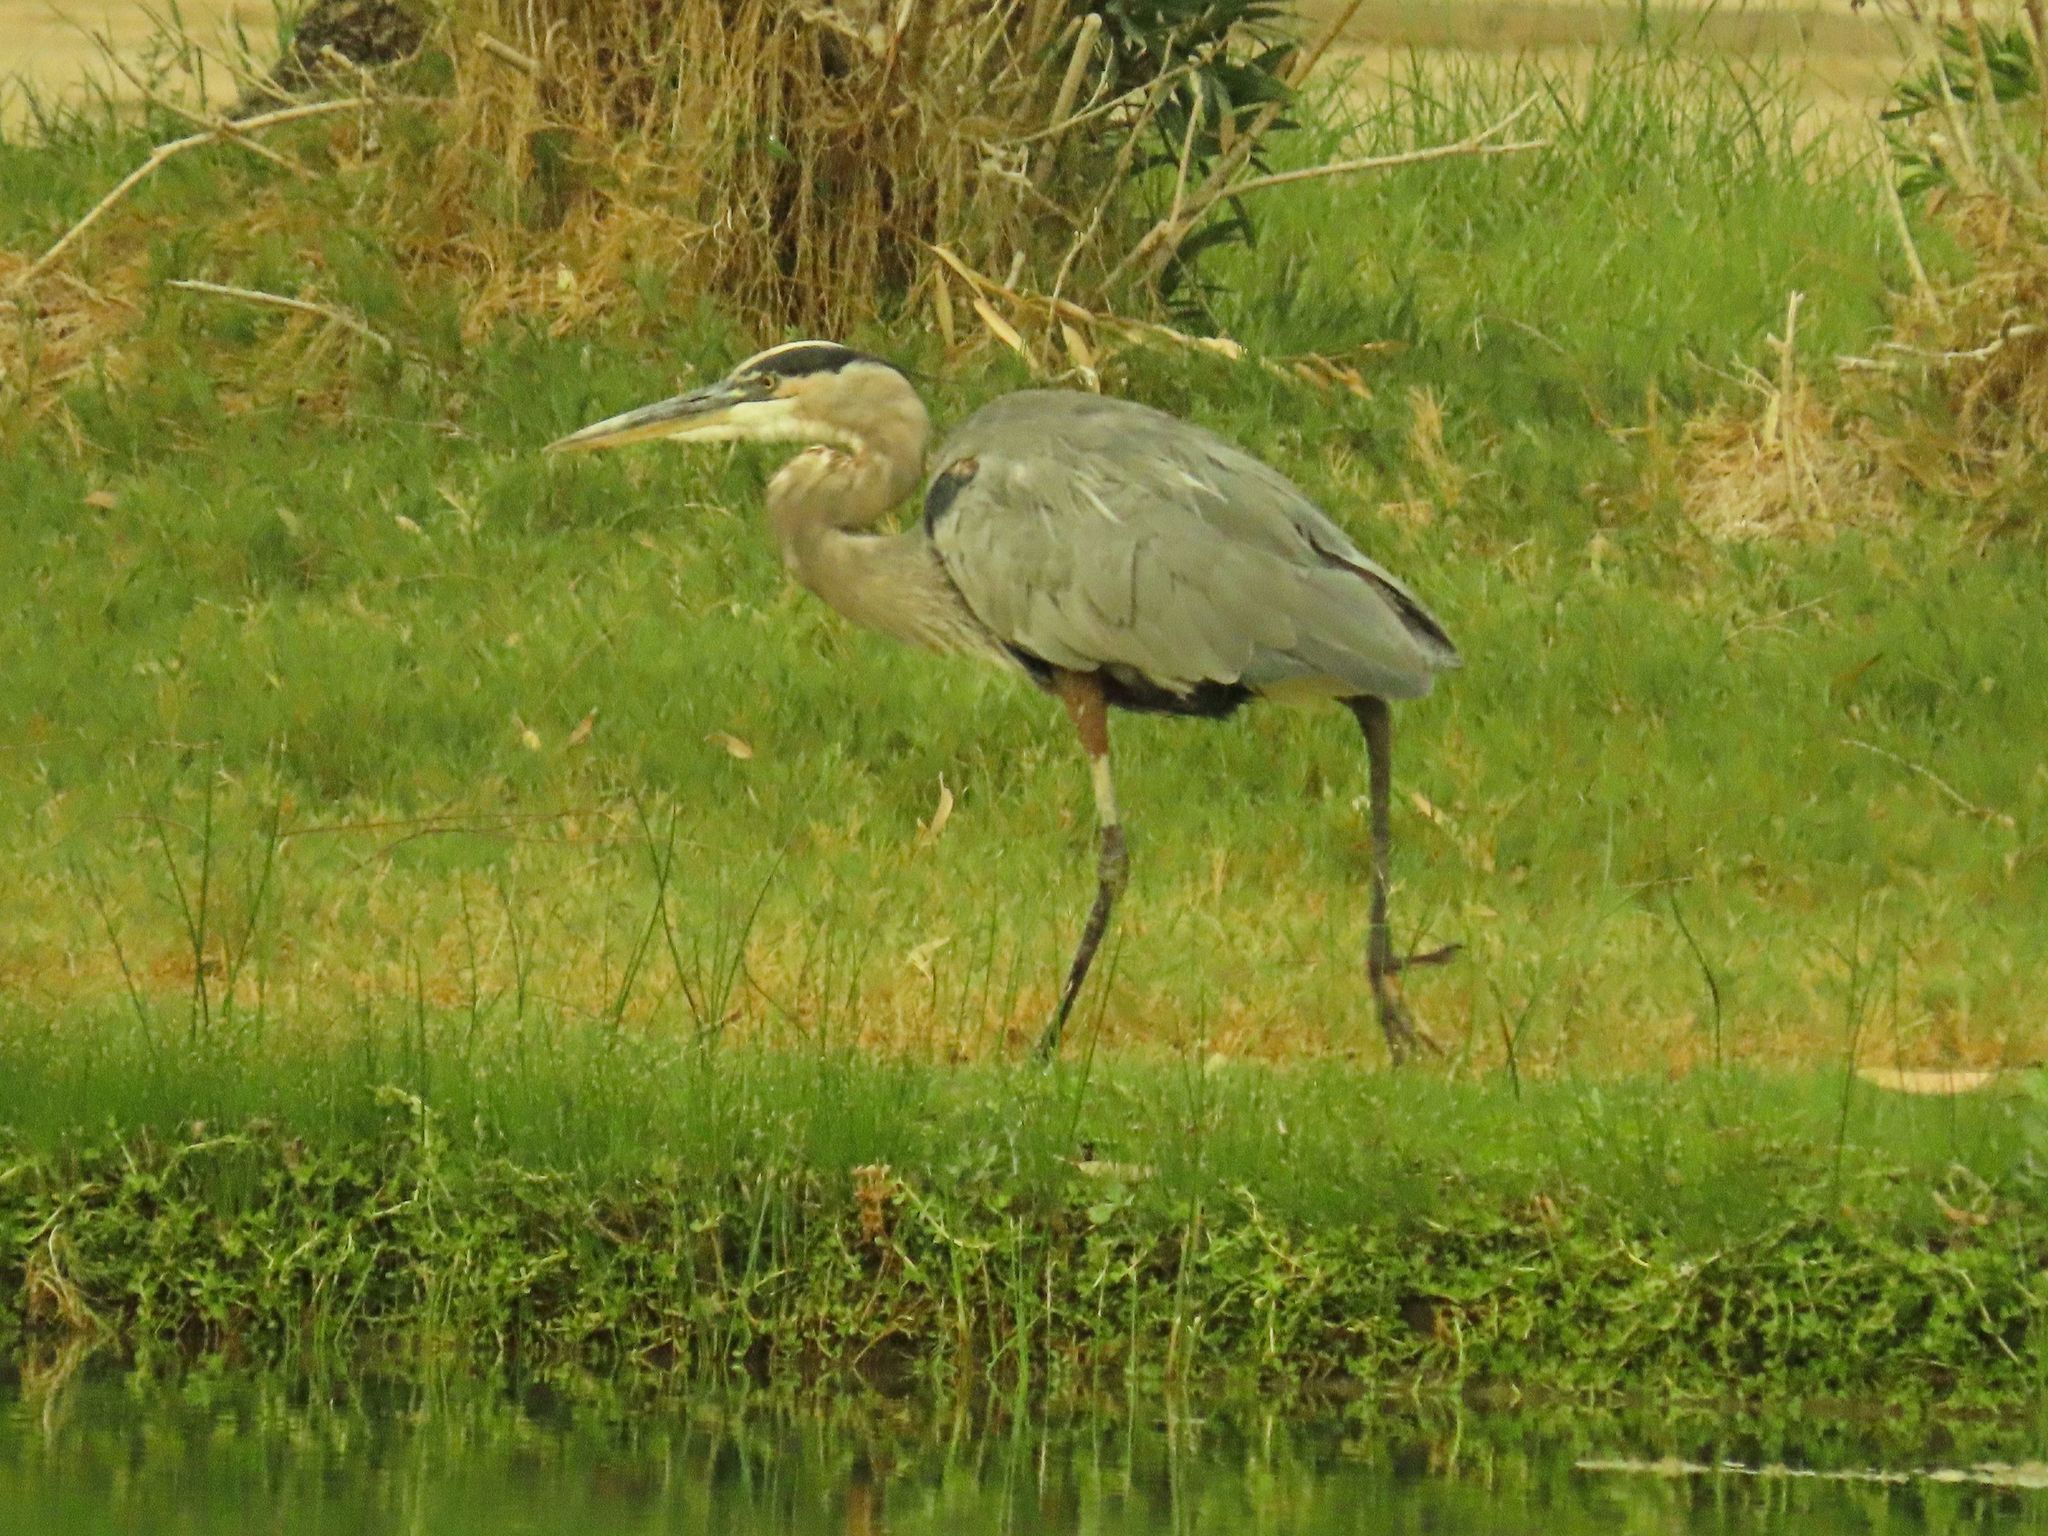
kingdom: Animalia
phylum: Chordata
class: Aves
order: Pelecaniformes
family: Ardeidae
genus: Ardea
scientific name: Ardea herodias
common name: Great blue heron
